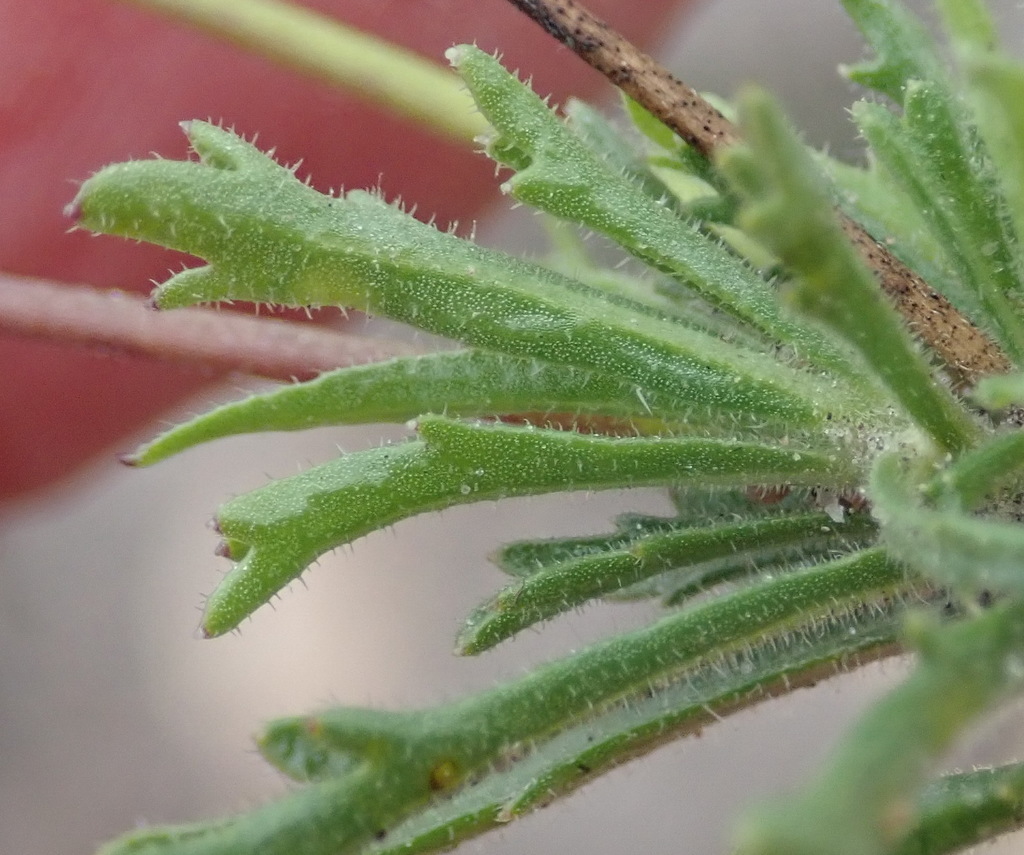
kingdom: Plantae
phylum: Tracheophyta
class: Magnoliopsida
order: Asterales
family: Campanulaceae
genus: Lobelia
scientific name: Lobelia tomentosa
